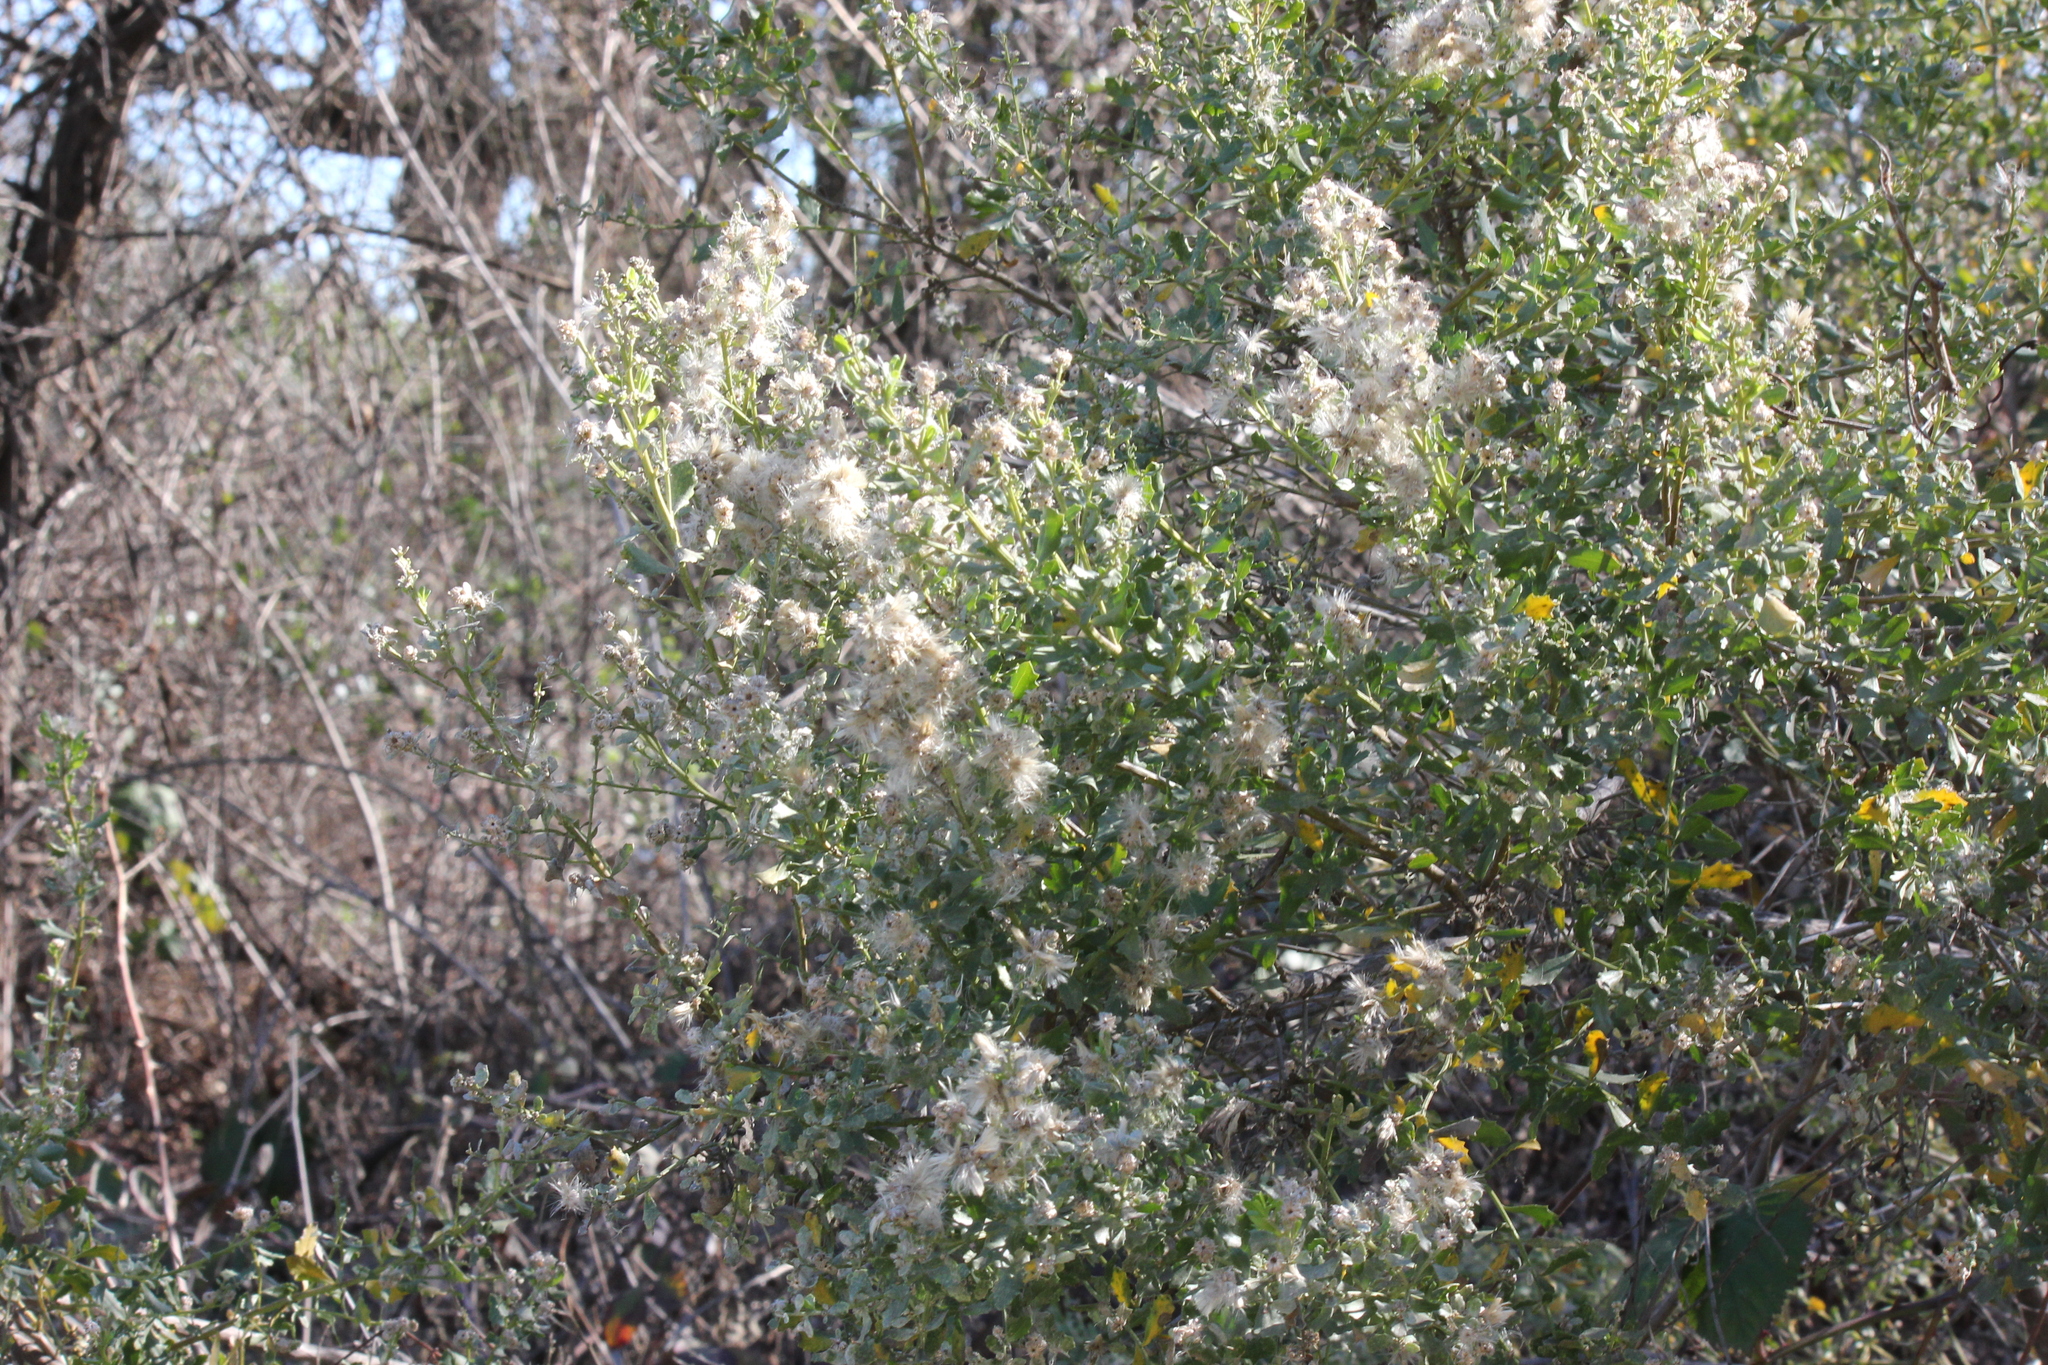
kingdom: Plantae
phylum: Tracheophyta
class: Magnoliopsida
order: Asterales
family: Asteraceae
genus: Baccharis
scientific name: Baccharis pilularis
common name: Coyotebrush
